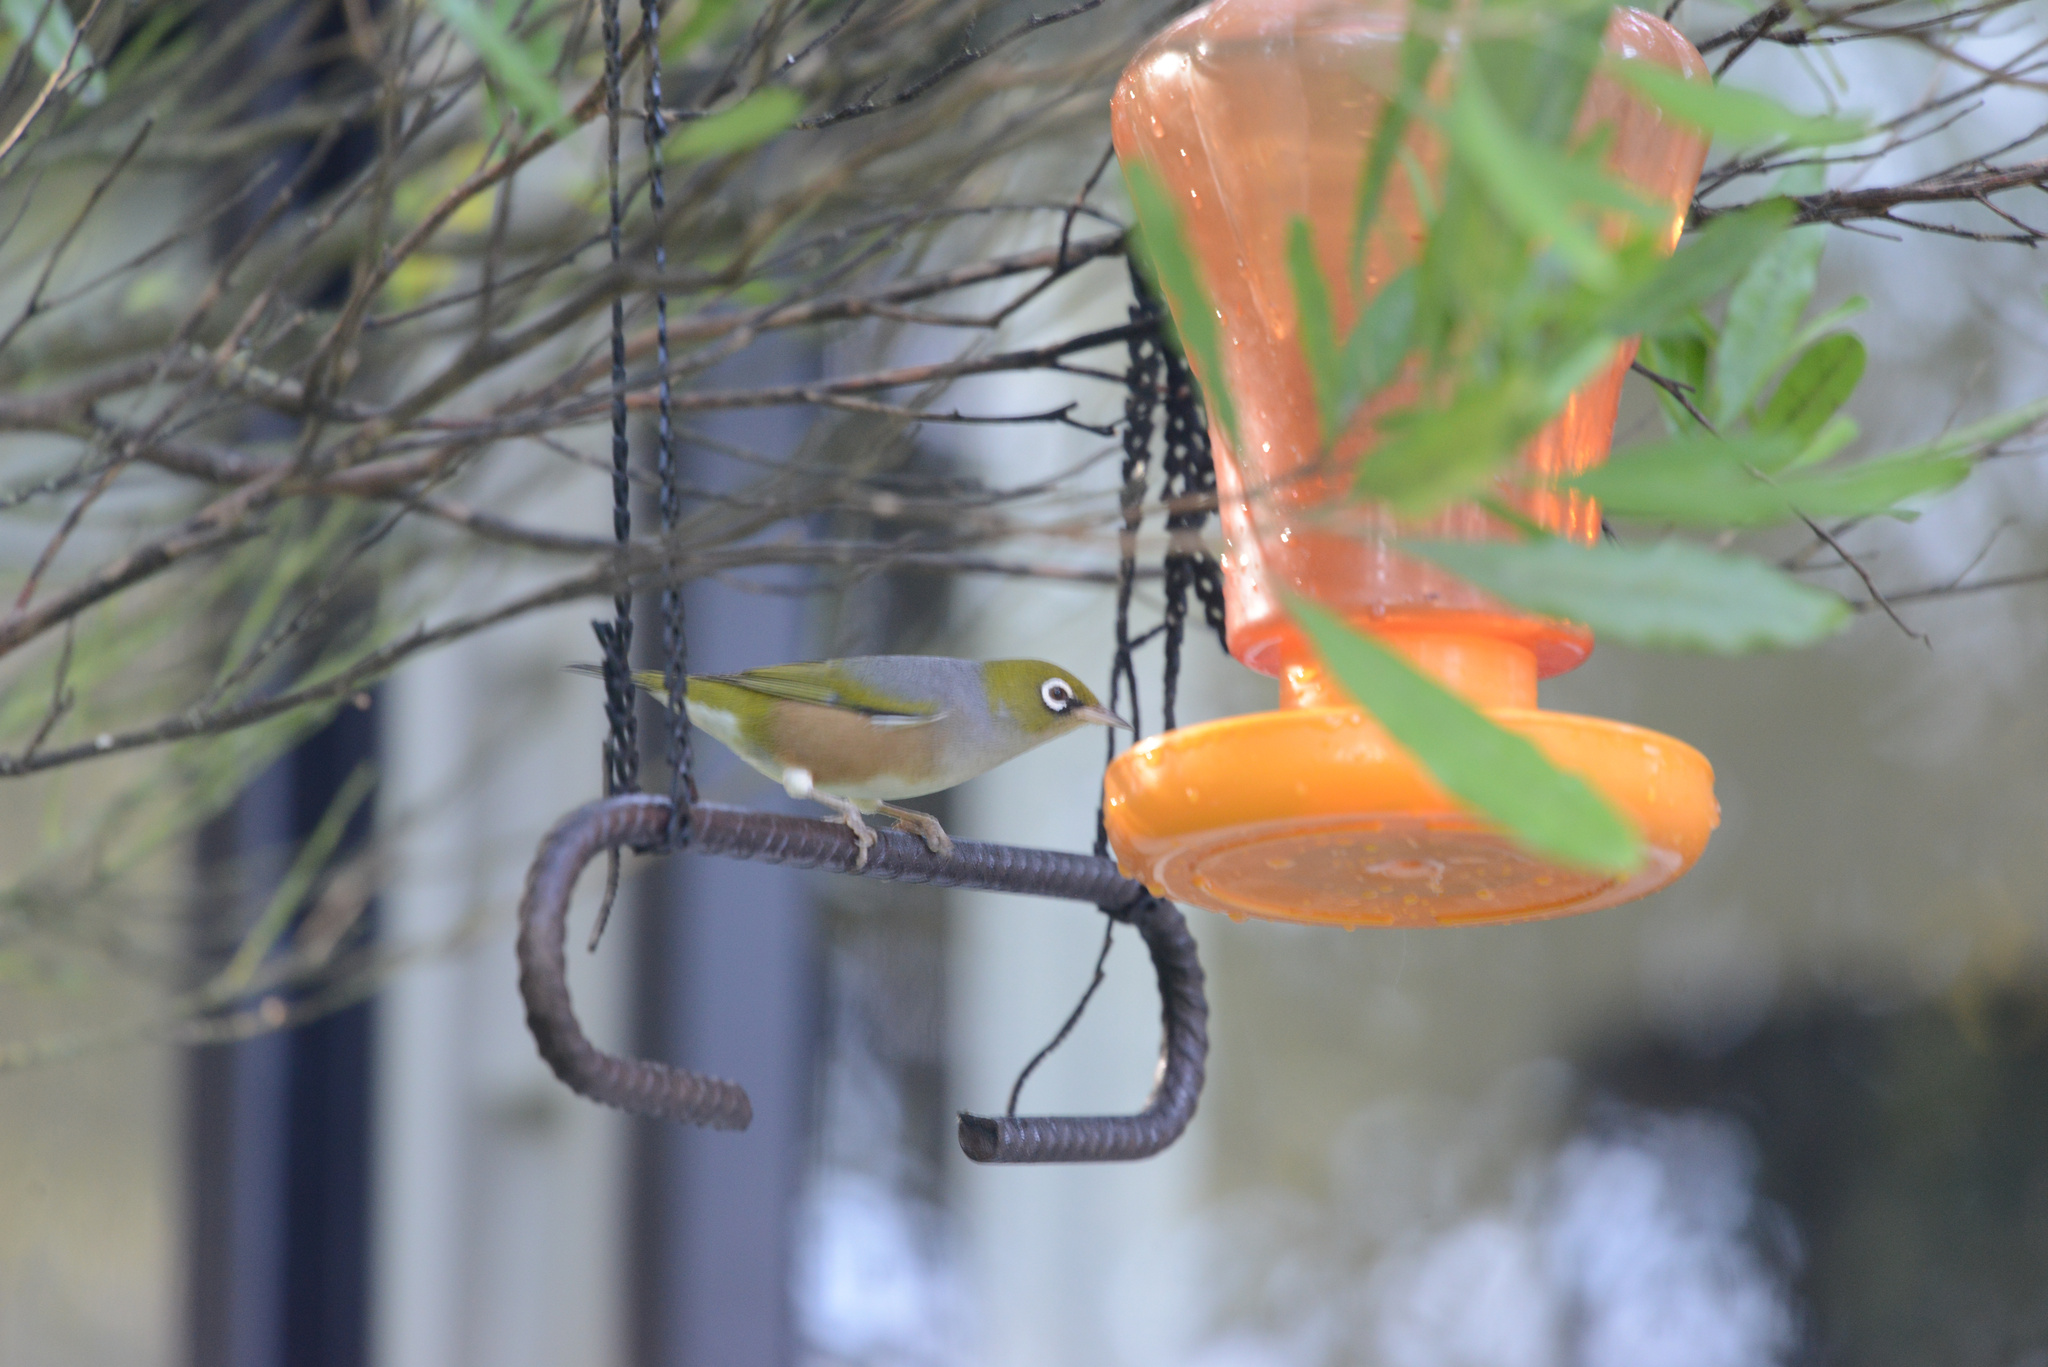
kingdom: Animalia
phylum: Chordata
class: Aves
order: Passeriformes
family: Zosteropidae
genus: Zosterops
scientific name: Zosterops lateralis
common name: Silvereye
